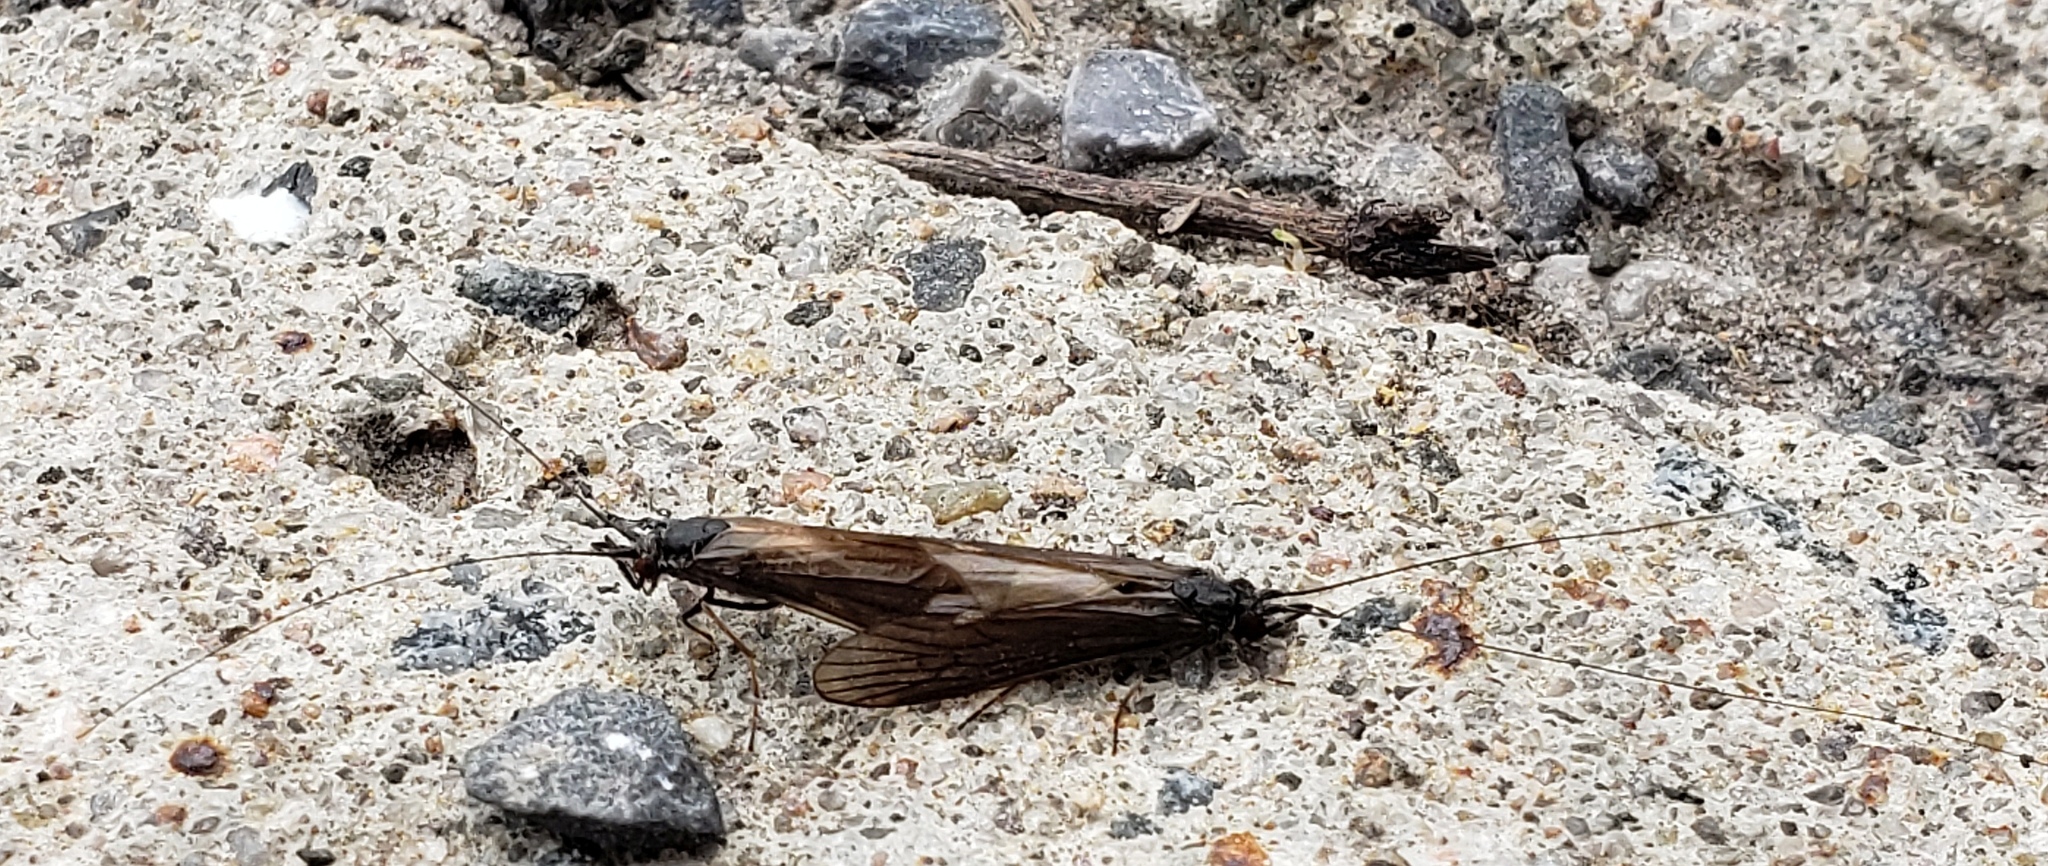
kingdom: Animalia
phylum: Arthropoda
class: Insecta
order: Trichoptera
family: Leptoceridae
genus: Ceraclea
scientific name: Ceraclea nigronervosa
